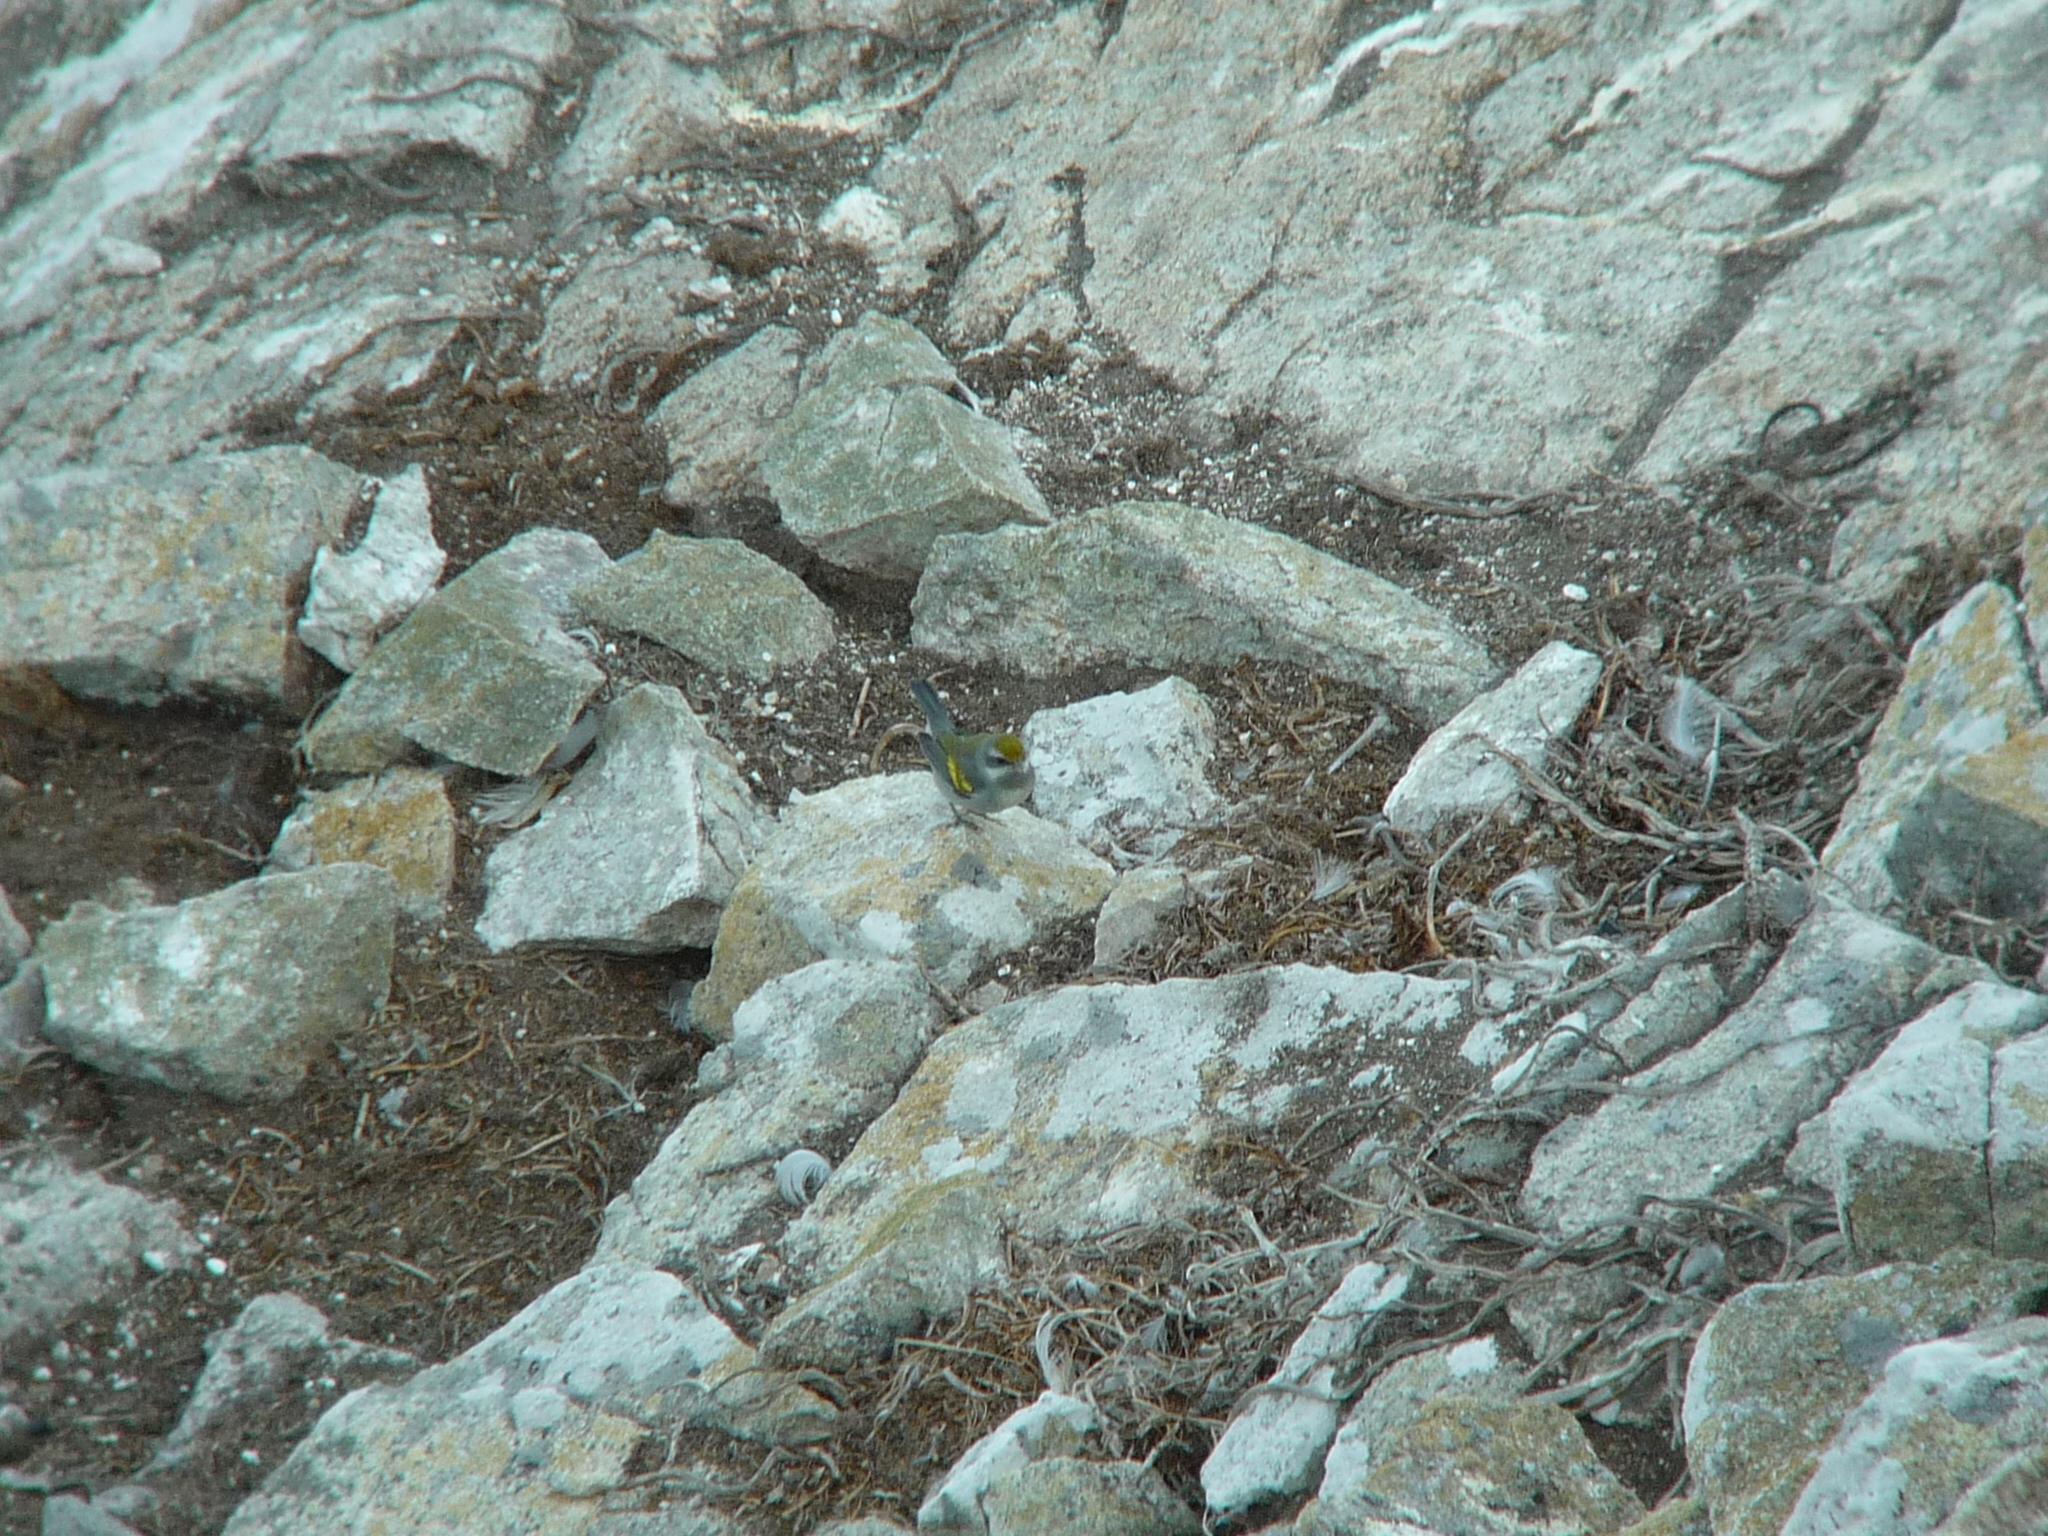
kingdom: Animalia
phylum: Chordata
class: Aves
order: Passeriformes
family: Parulidae
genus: Vermivora
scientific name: Vermivora chrysoptera
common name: Golden-winged warbler
